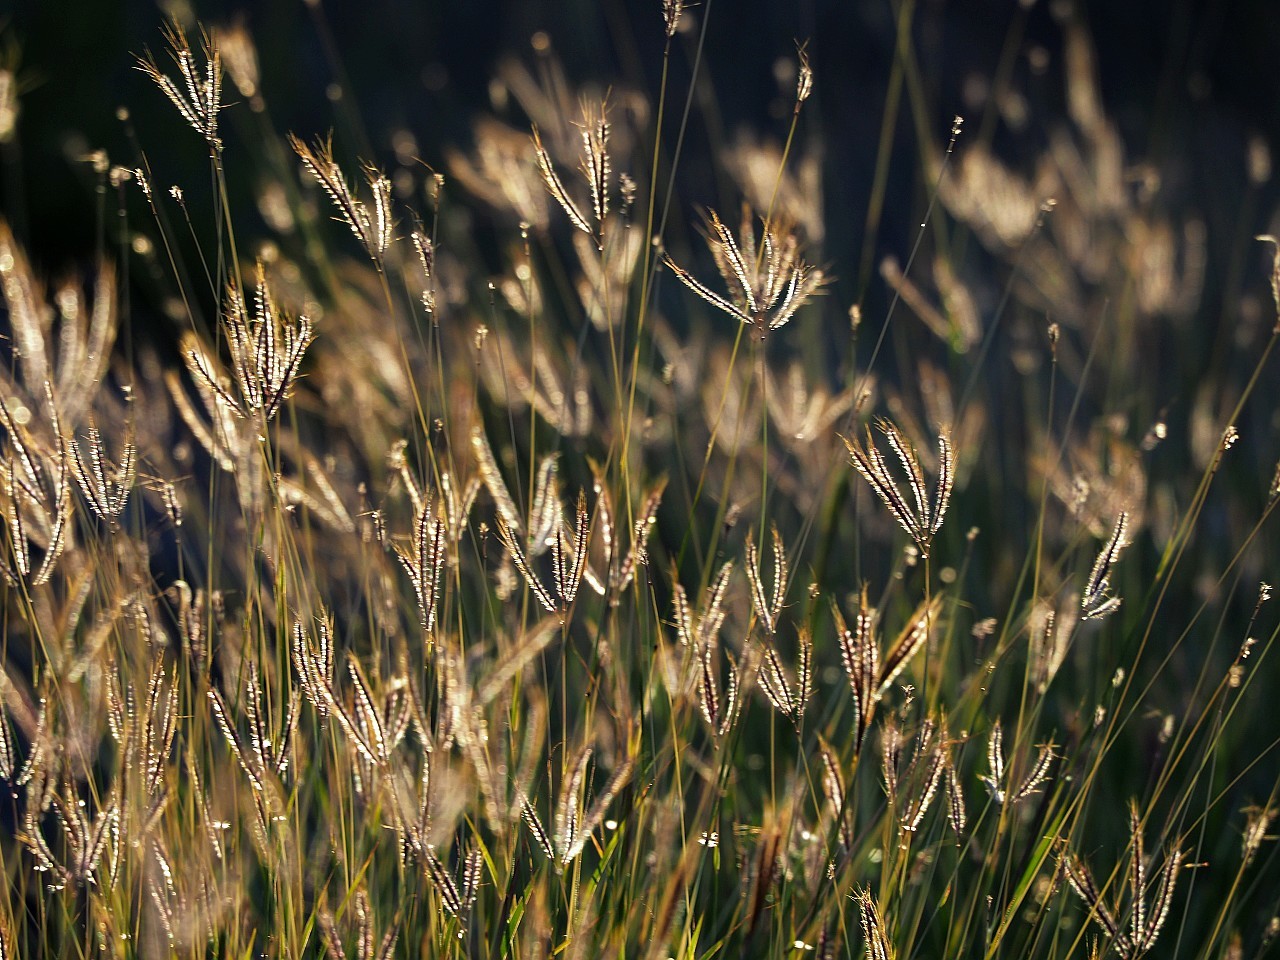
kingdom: Plantae
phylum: Tracheophyta
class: Liliopsida
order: Poales
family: Poaceae
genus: Dichanthium
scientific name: Dichanthium annulatum
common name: Kleberg's bluestem
